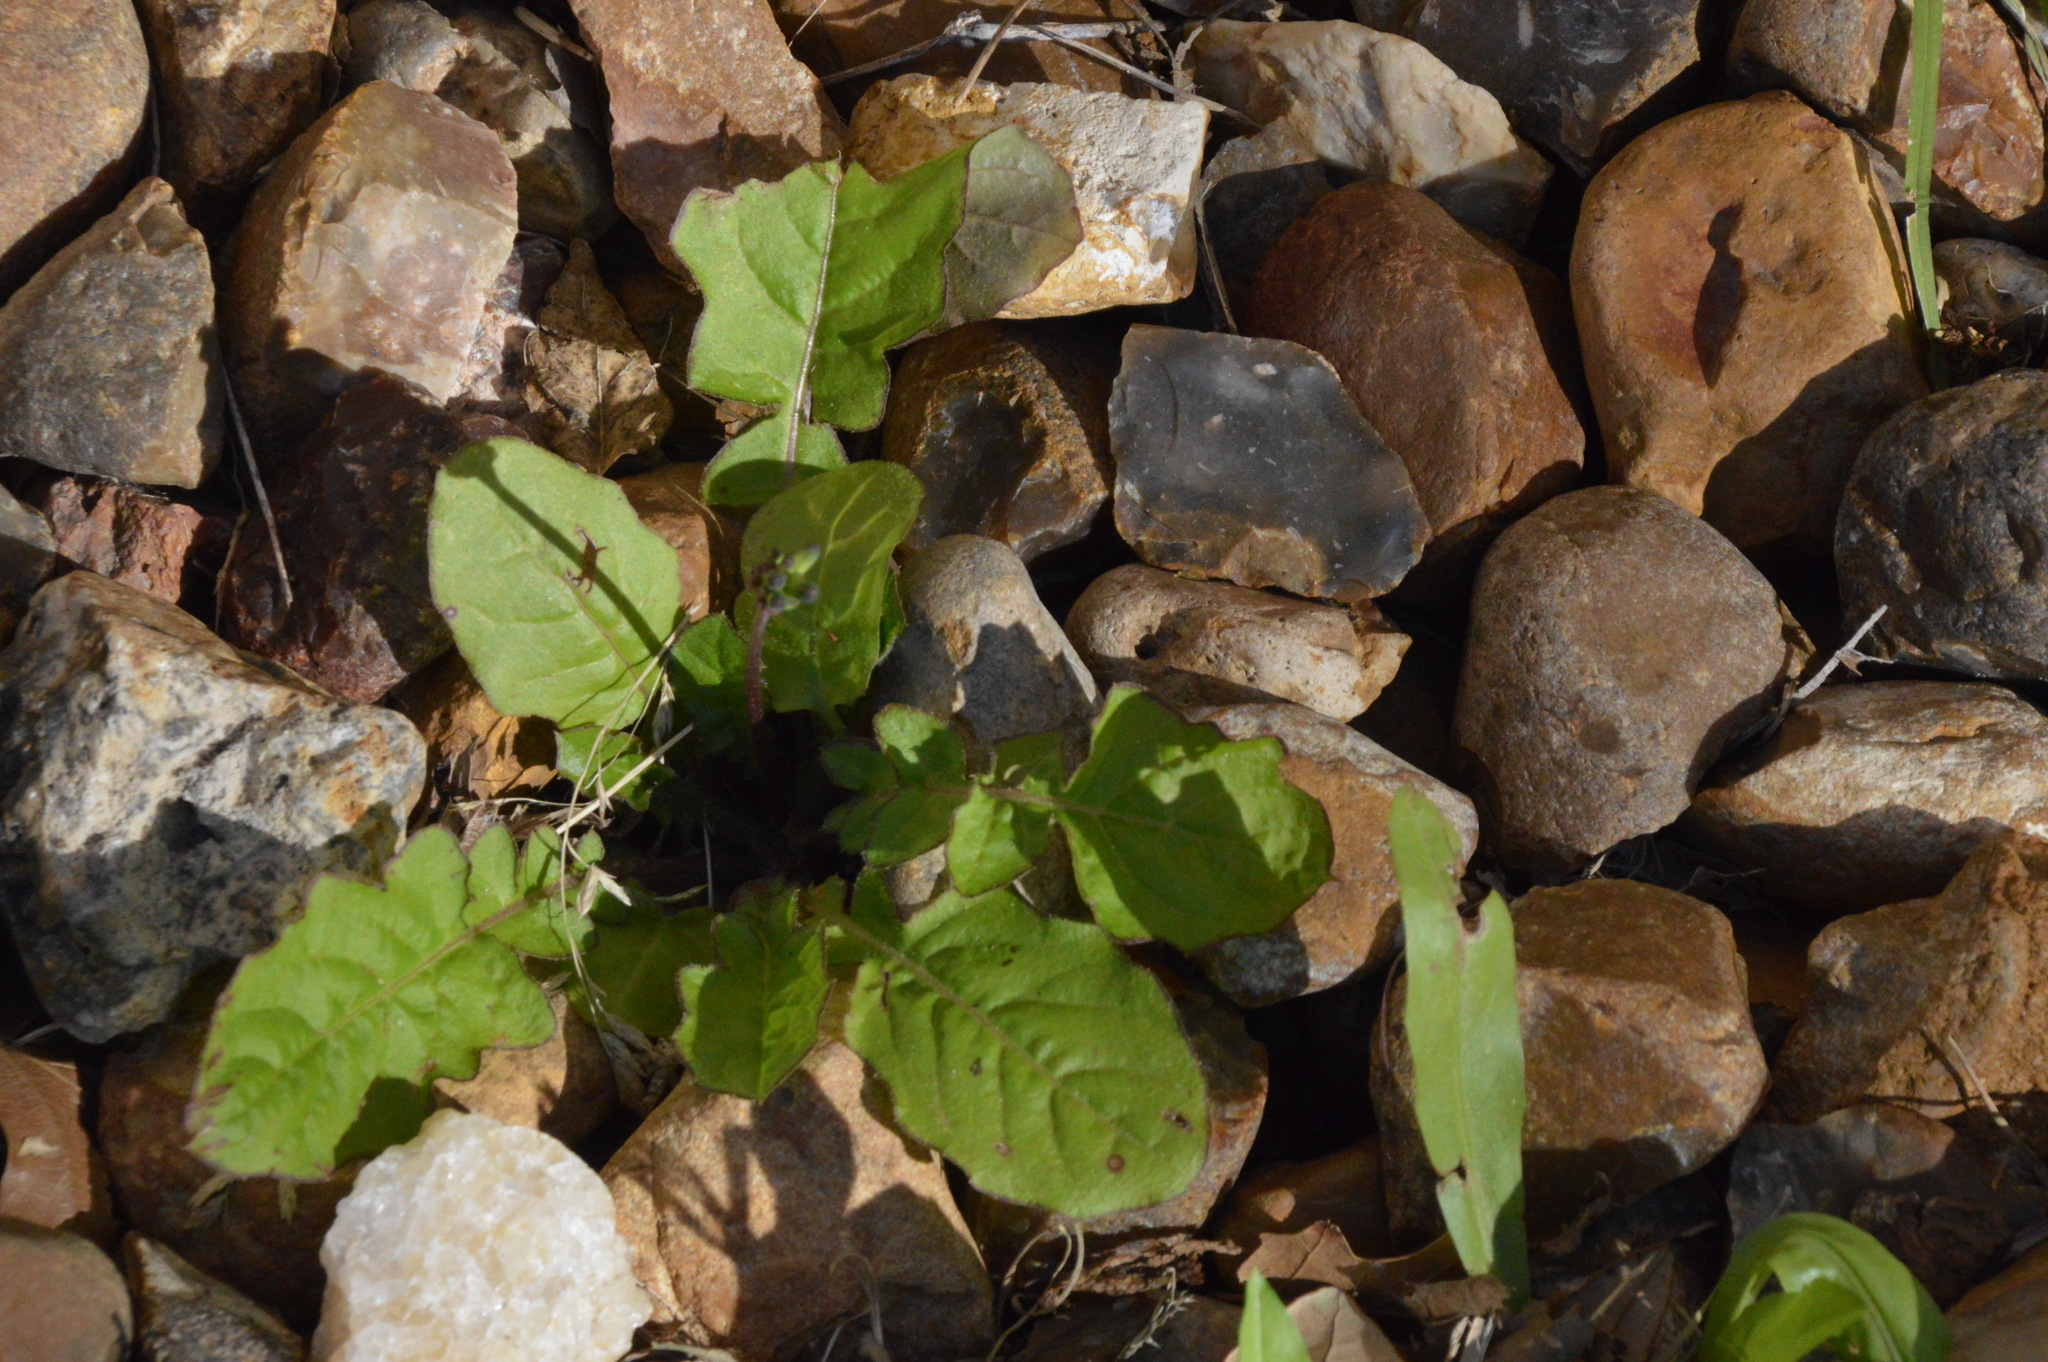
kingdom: Plantae
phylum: Tracheophyta
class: Magnoliopsida
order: Asterales
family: Asteraceae
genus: Youngia
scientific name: Youngia japonica
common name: Oriental false hawksbeard
